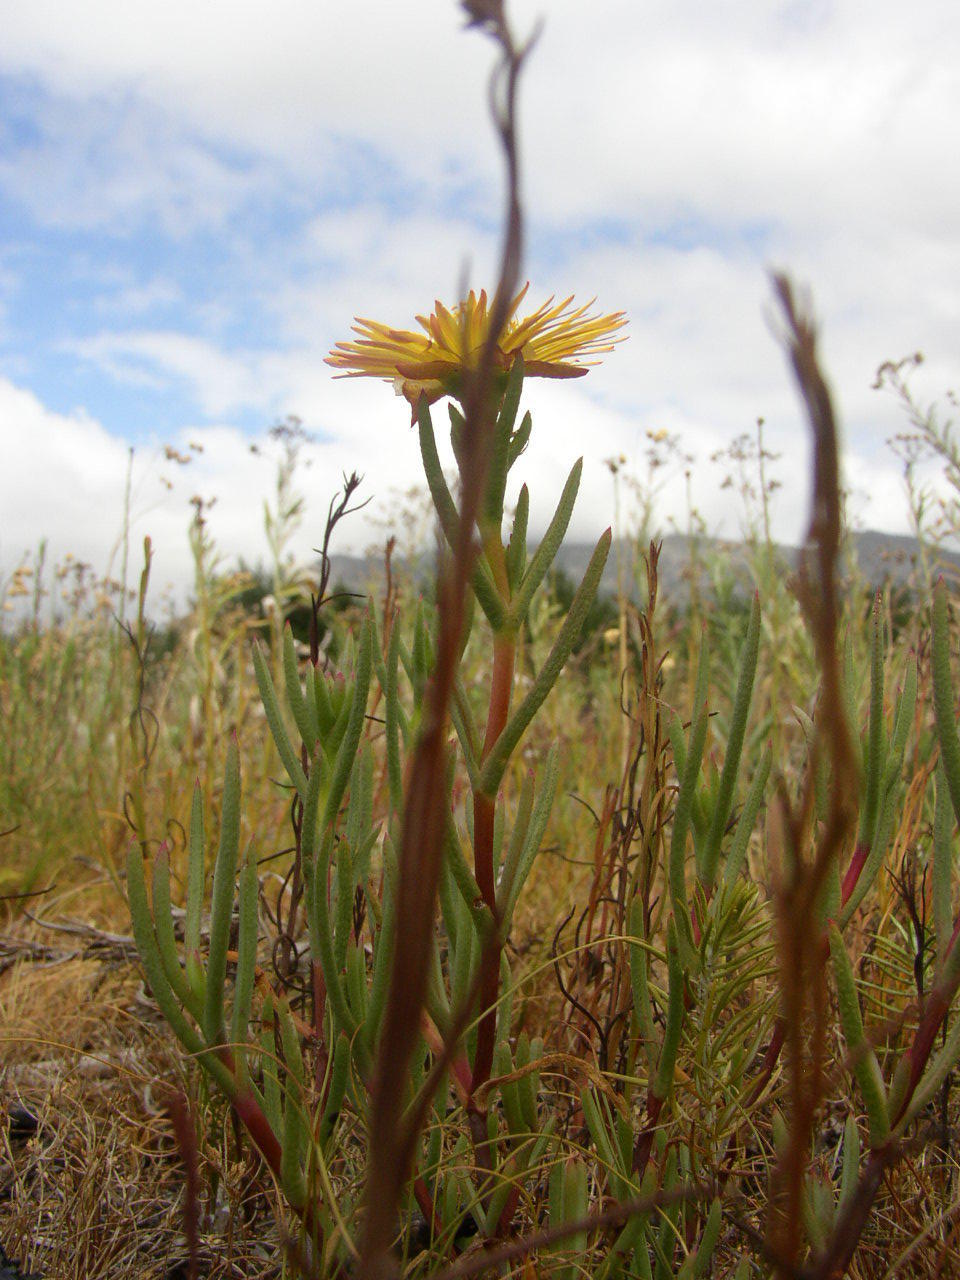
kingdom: Plantae
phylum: Tracheophyta
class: Magnoliopsida
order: Caryophyllales
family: Aizoaceae
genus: Lampranthus
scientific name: Lampranthus bicolor
